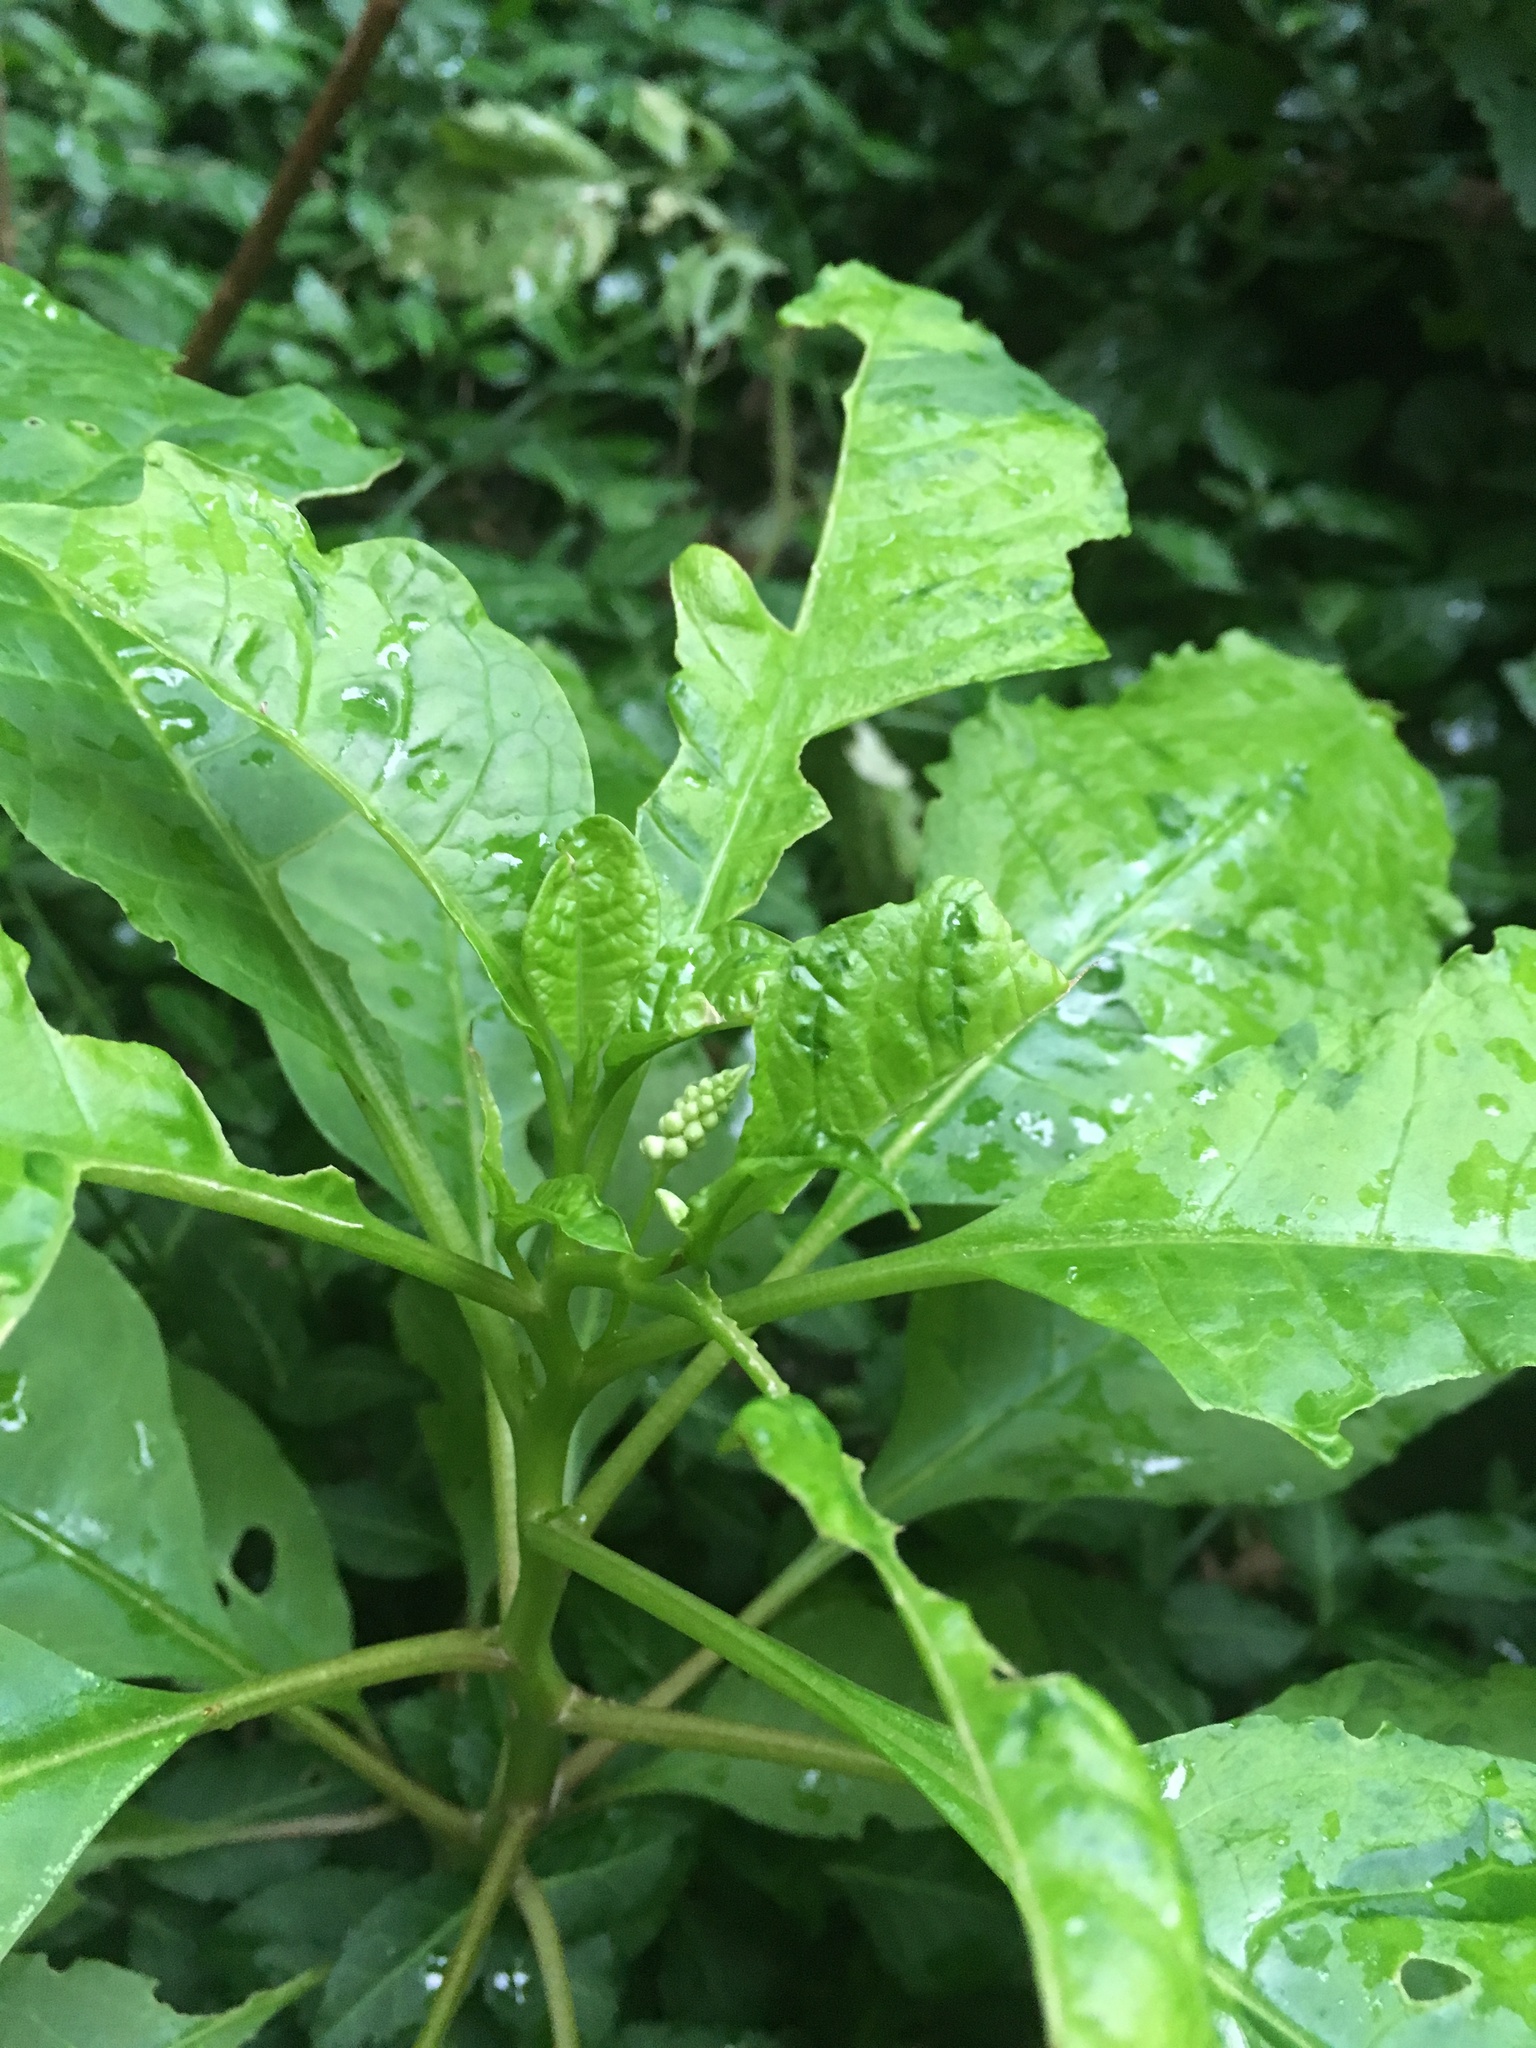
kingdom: Plantae
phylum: Tracheophyta
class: Magnoliopsida
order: Caryophyllales
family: Phytolaccaceae
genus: Phytolacca
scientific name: Phytolacca americana
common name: American pokeweed
